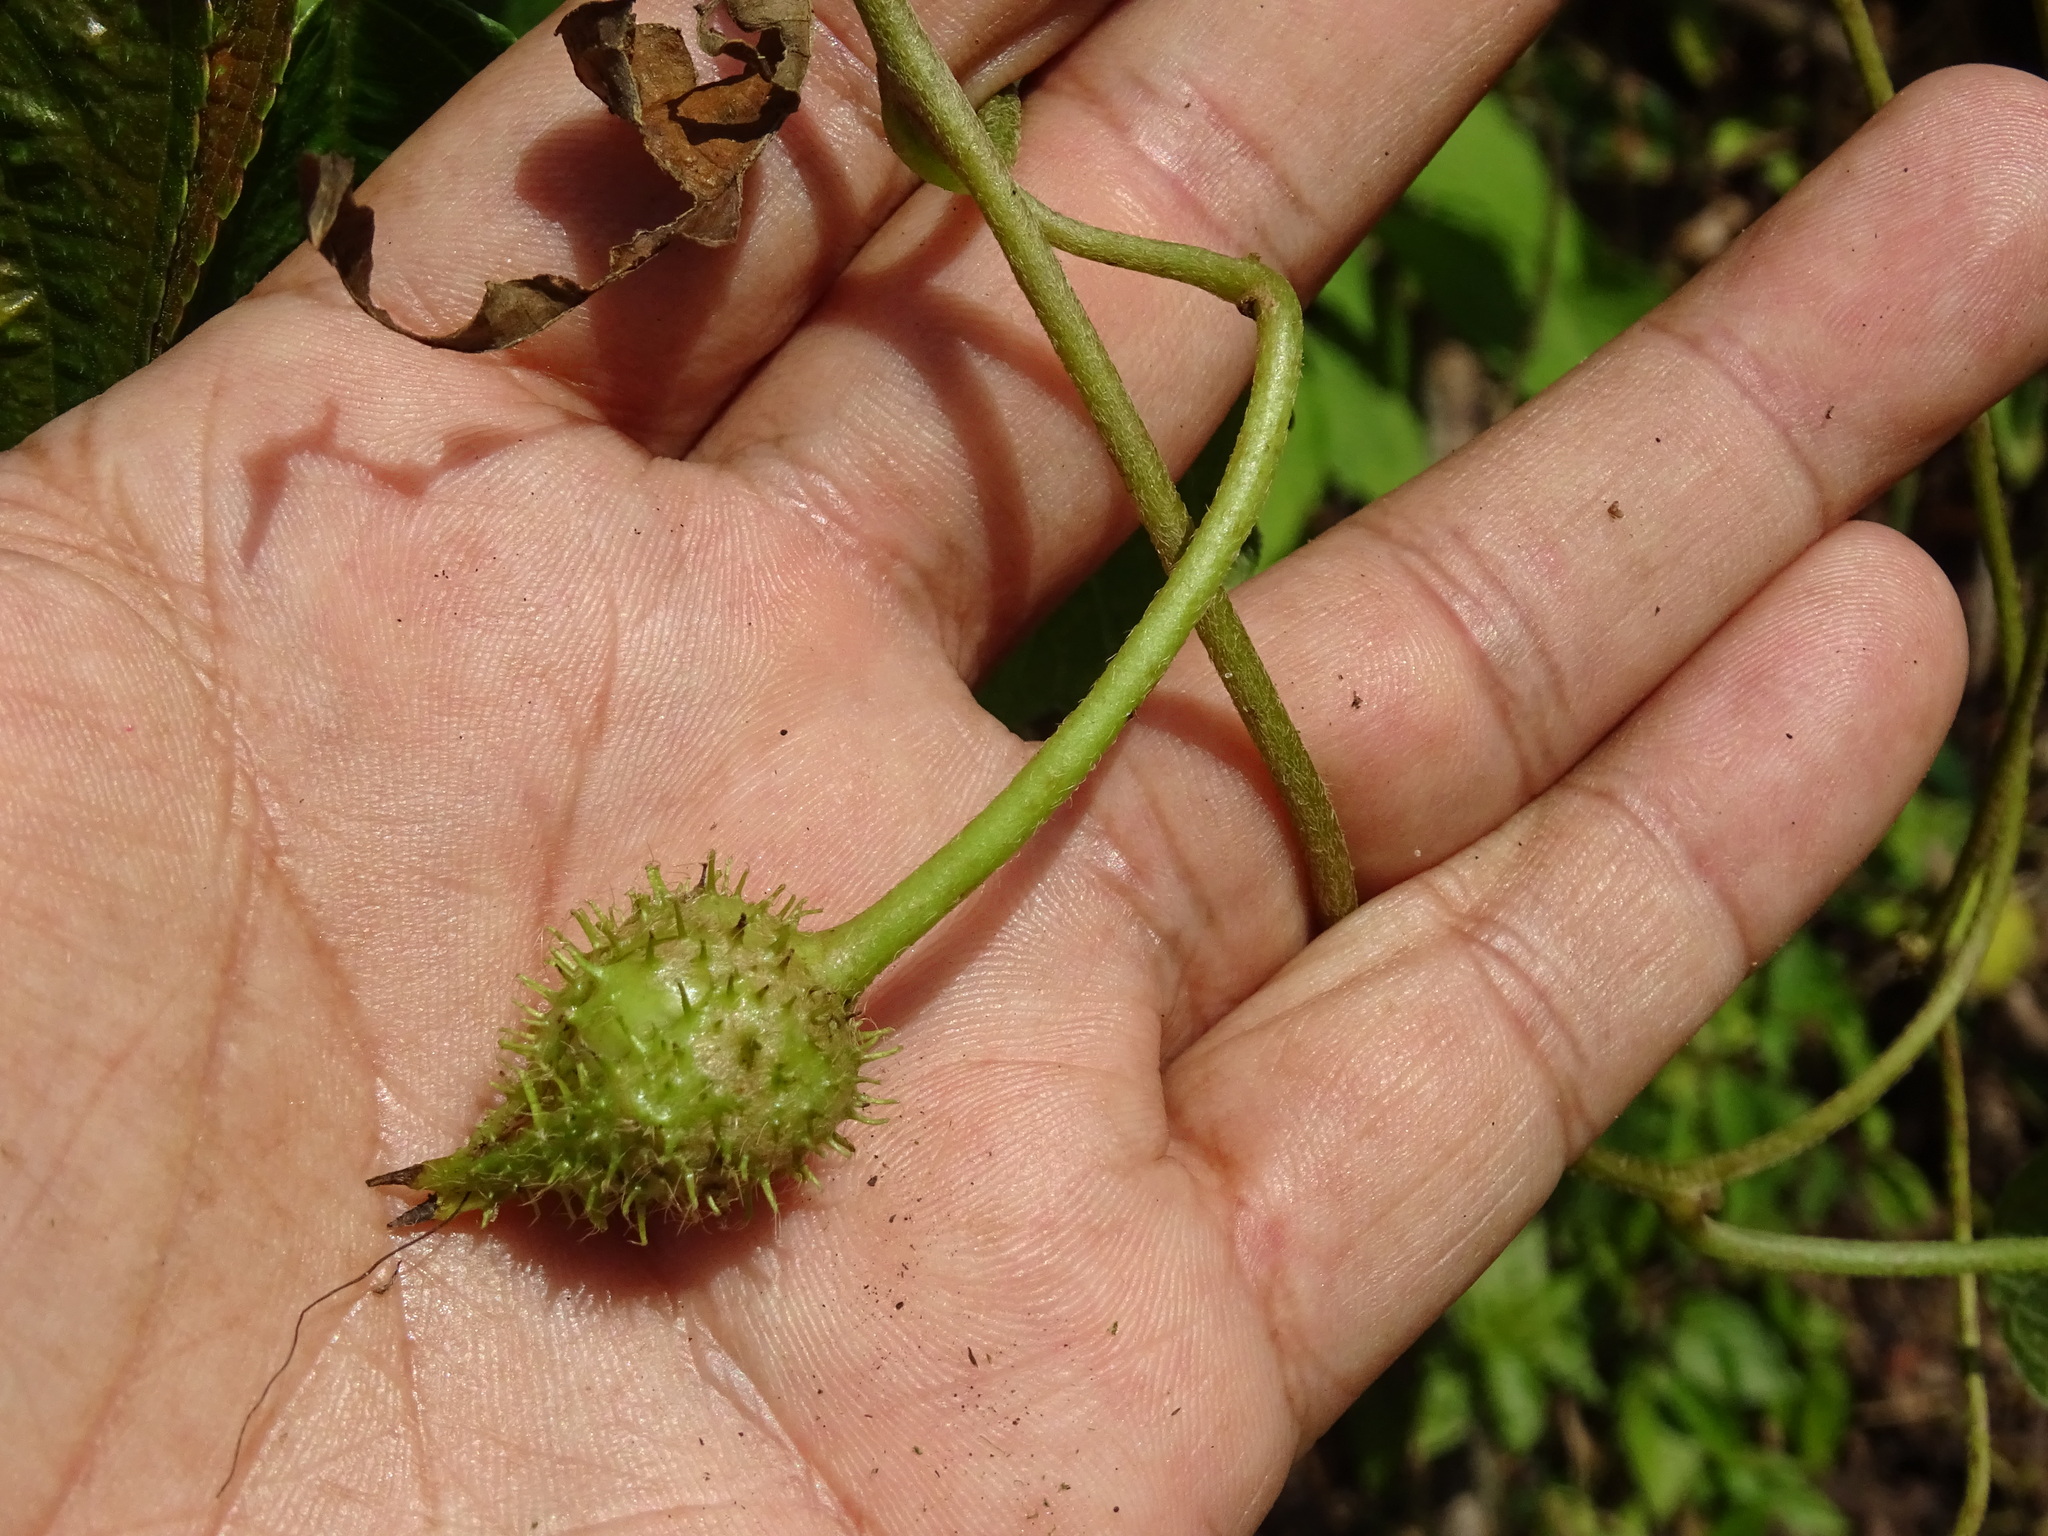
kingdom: Plantae
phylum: Tracheophyta
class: Magnoliopsida
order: Solanales
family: Convolvulaceae
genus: Ipomoea
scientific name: Ipomoea silvicola
